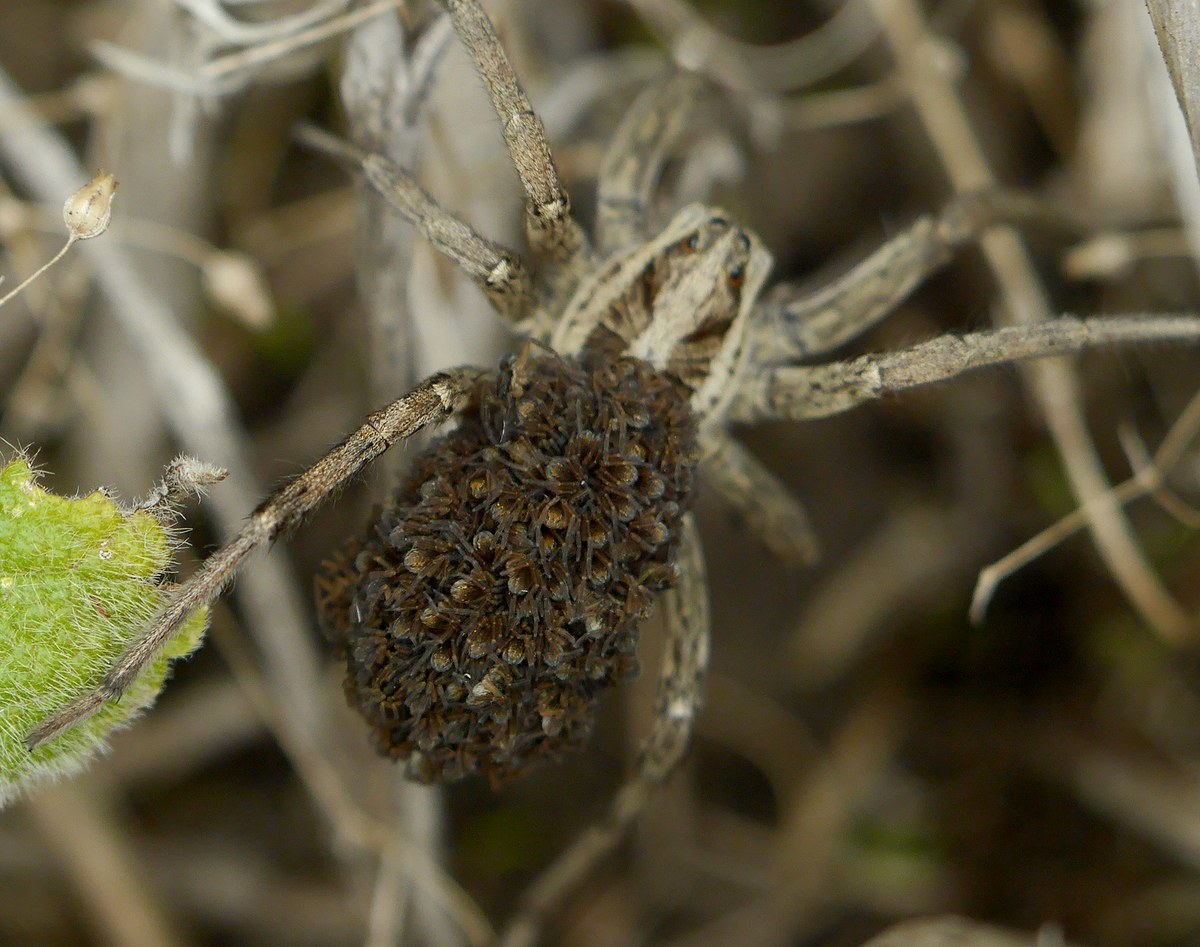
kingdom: Animalia
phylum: Arthropoda
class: Arachnida
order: Araneae
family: Lycosidae
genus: Hogna
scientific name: Hogna radiata
